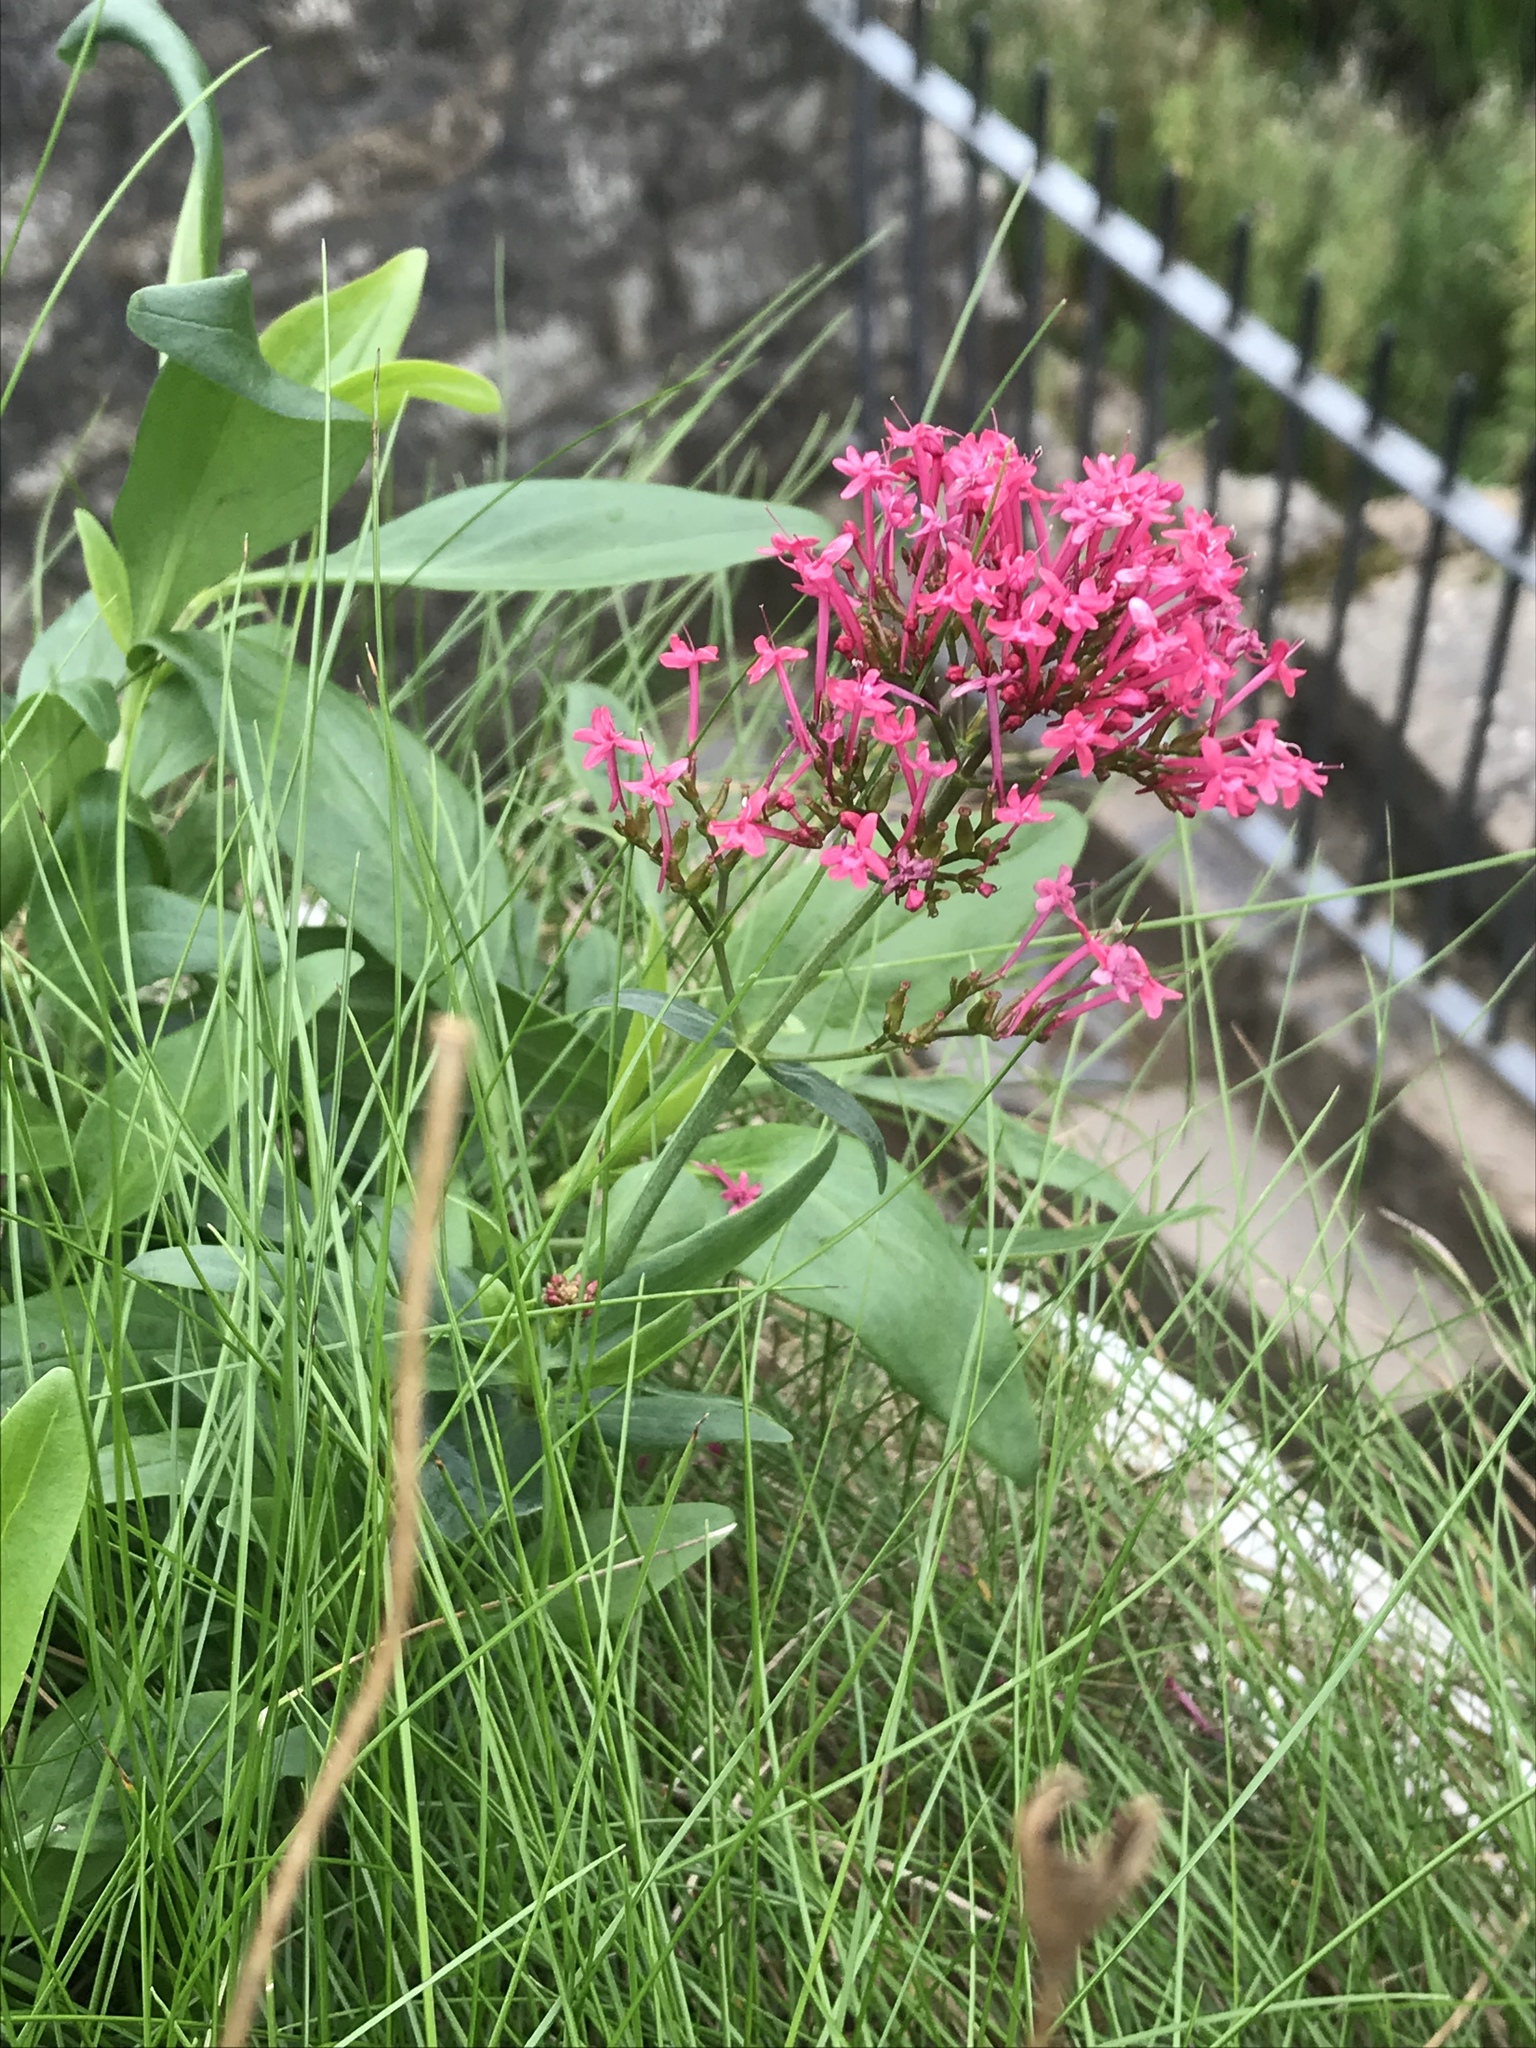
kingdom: Plantae
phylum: Tracheophyta
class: Magnoliopsida
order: Dipsacales
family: Caprifoliaceae
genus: Centranthus
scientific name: Centranthus ruber
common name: Red valerian
